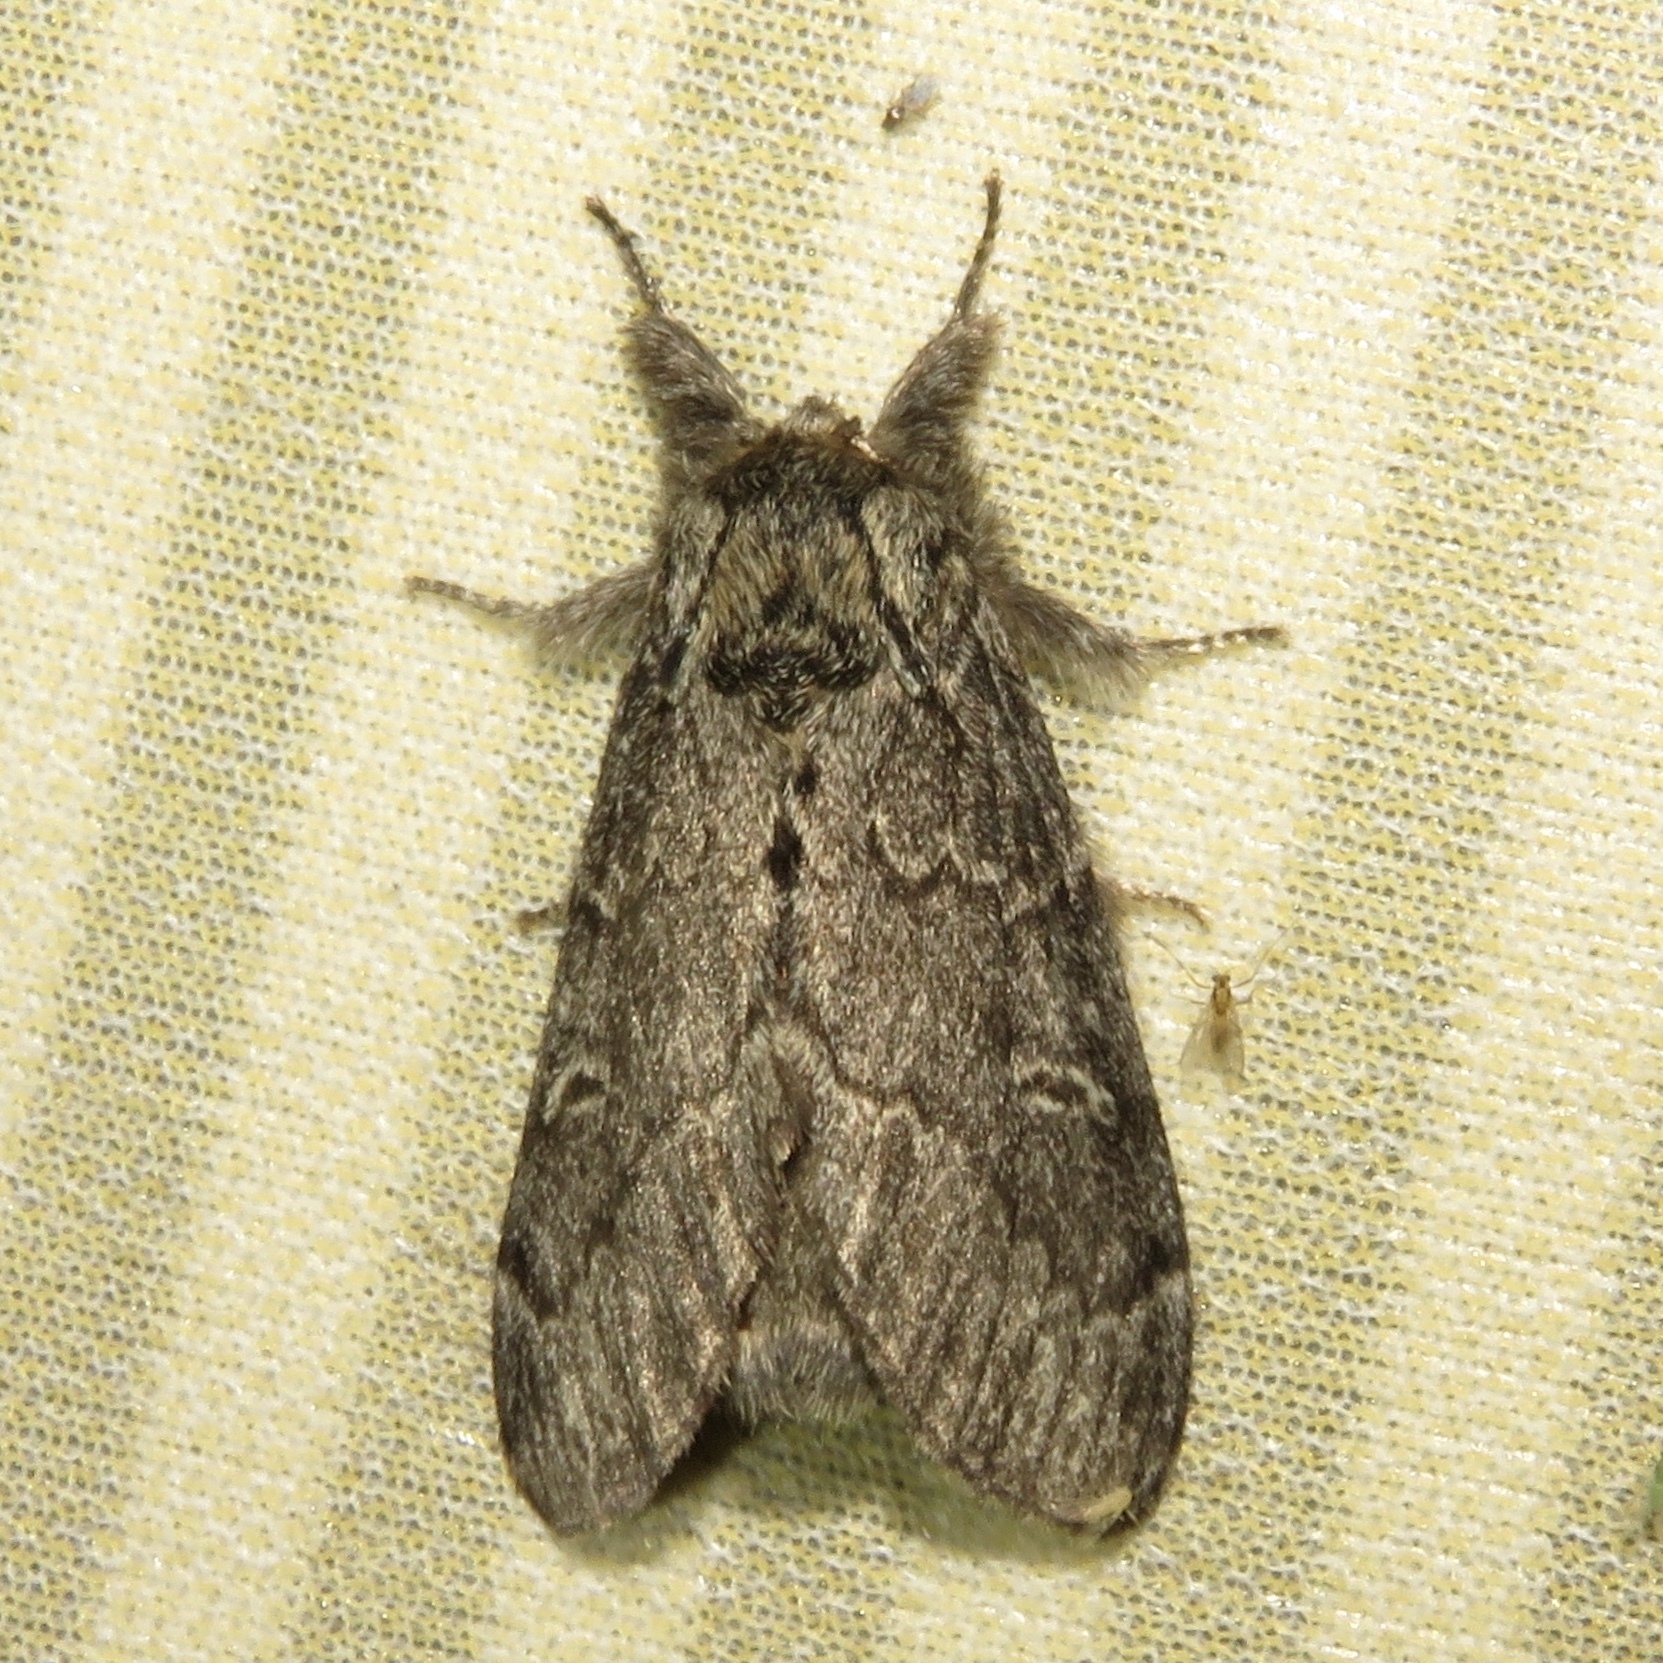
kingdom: Animalia
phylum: Arthropoda
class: Insecta
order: Lepidoptera
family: Notodontidae
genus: Notodonta
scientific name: Notodonta torva
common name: Large dark prominent
